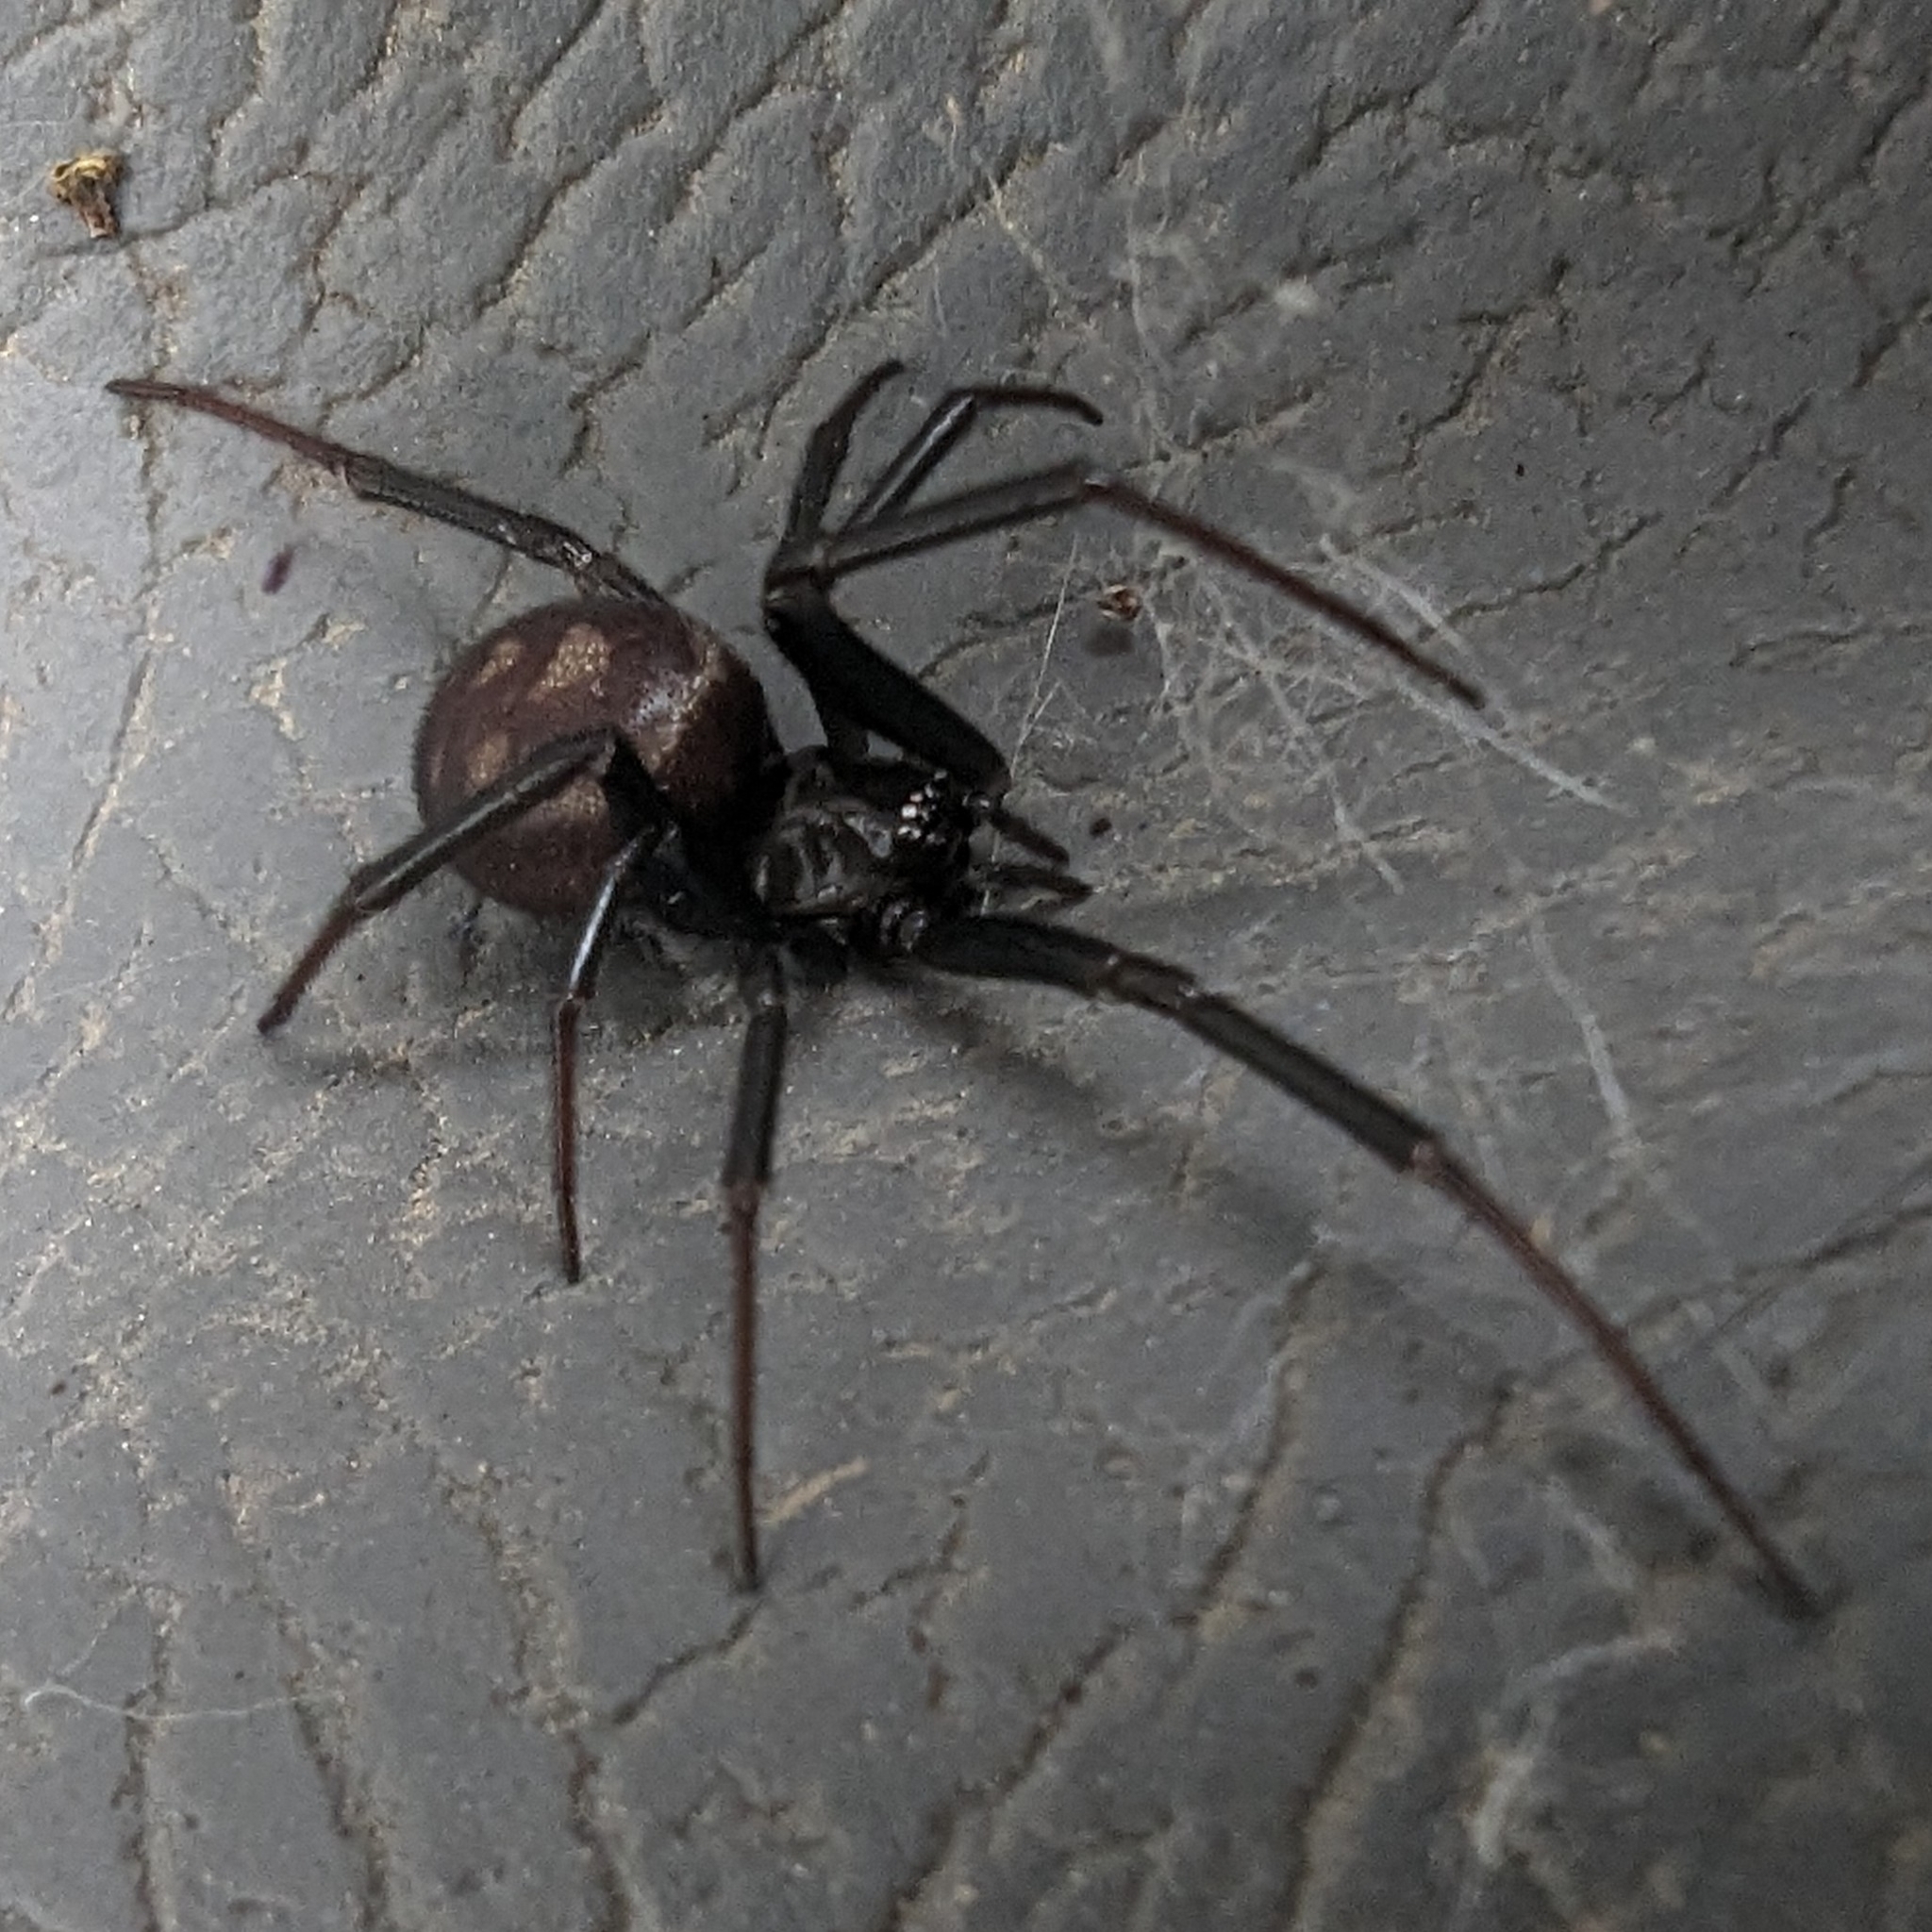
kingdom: Animalia
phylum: Arthropoda
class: Arachnida
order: Araneae
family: Theridiidae
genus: Steatoda
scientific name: Steatoda grossa
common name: False black widow
